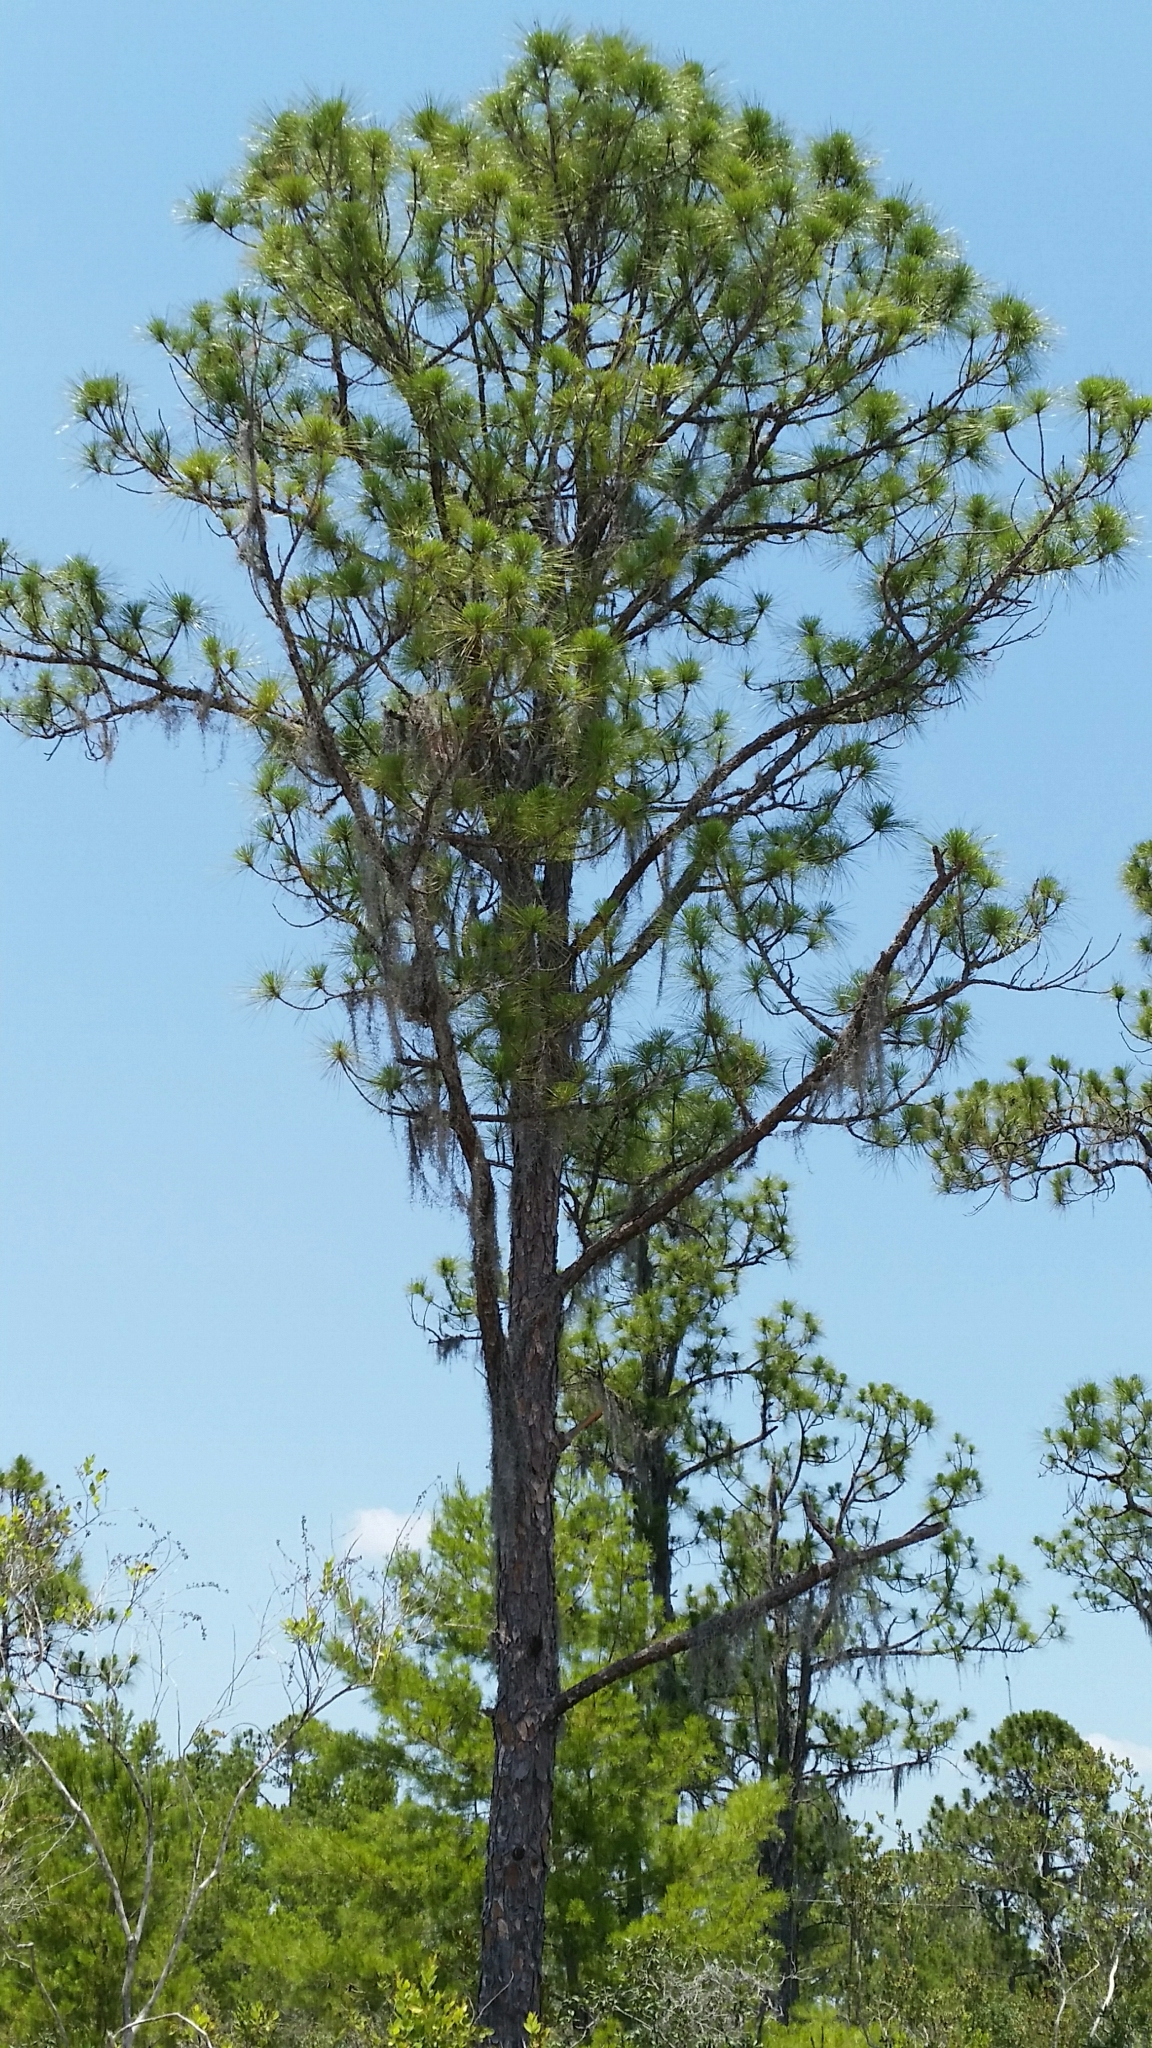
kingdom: Plantae
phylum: Tracheophyta
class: Pinopsida
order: Pinales
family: Pinaceae
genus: Pinus
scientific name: Pinus elliottii
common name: Slash pine
